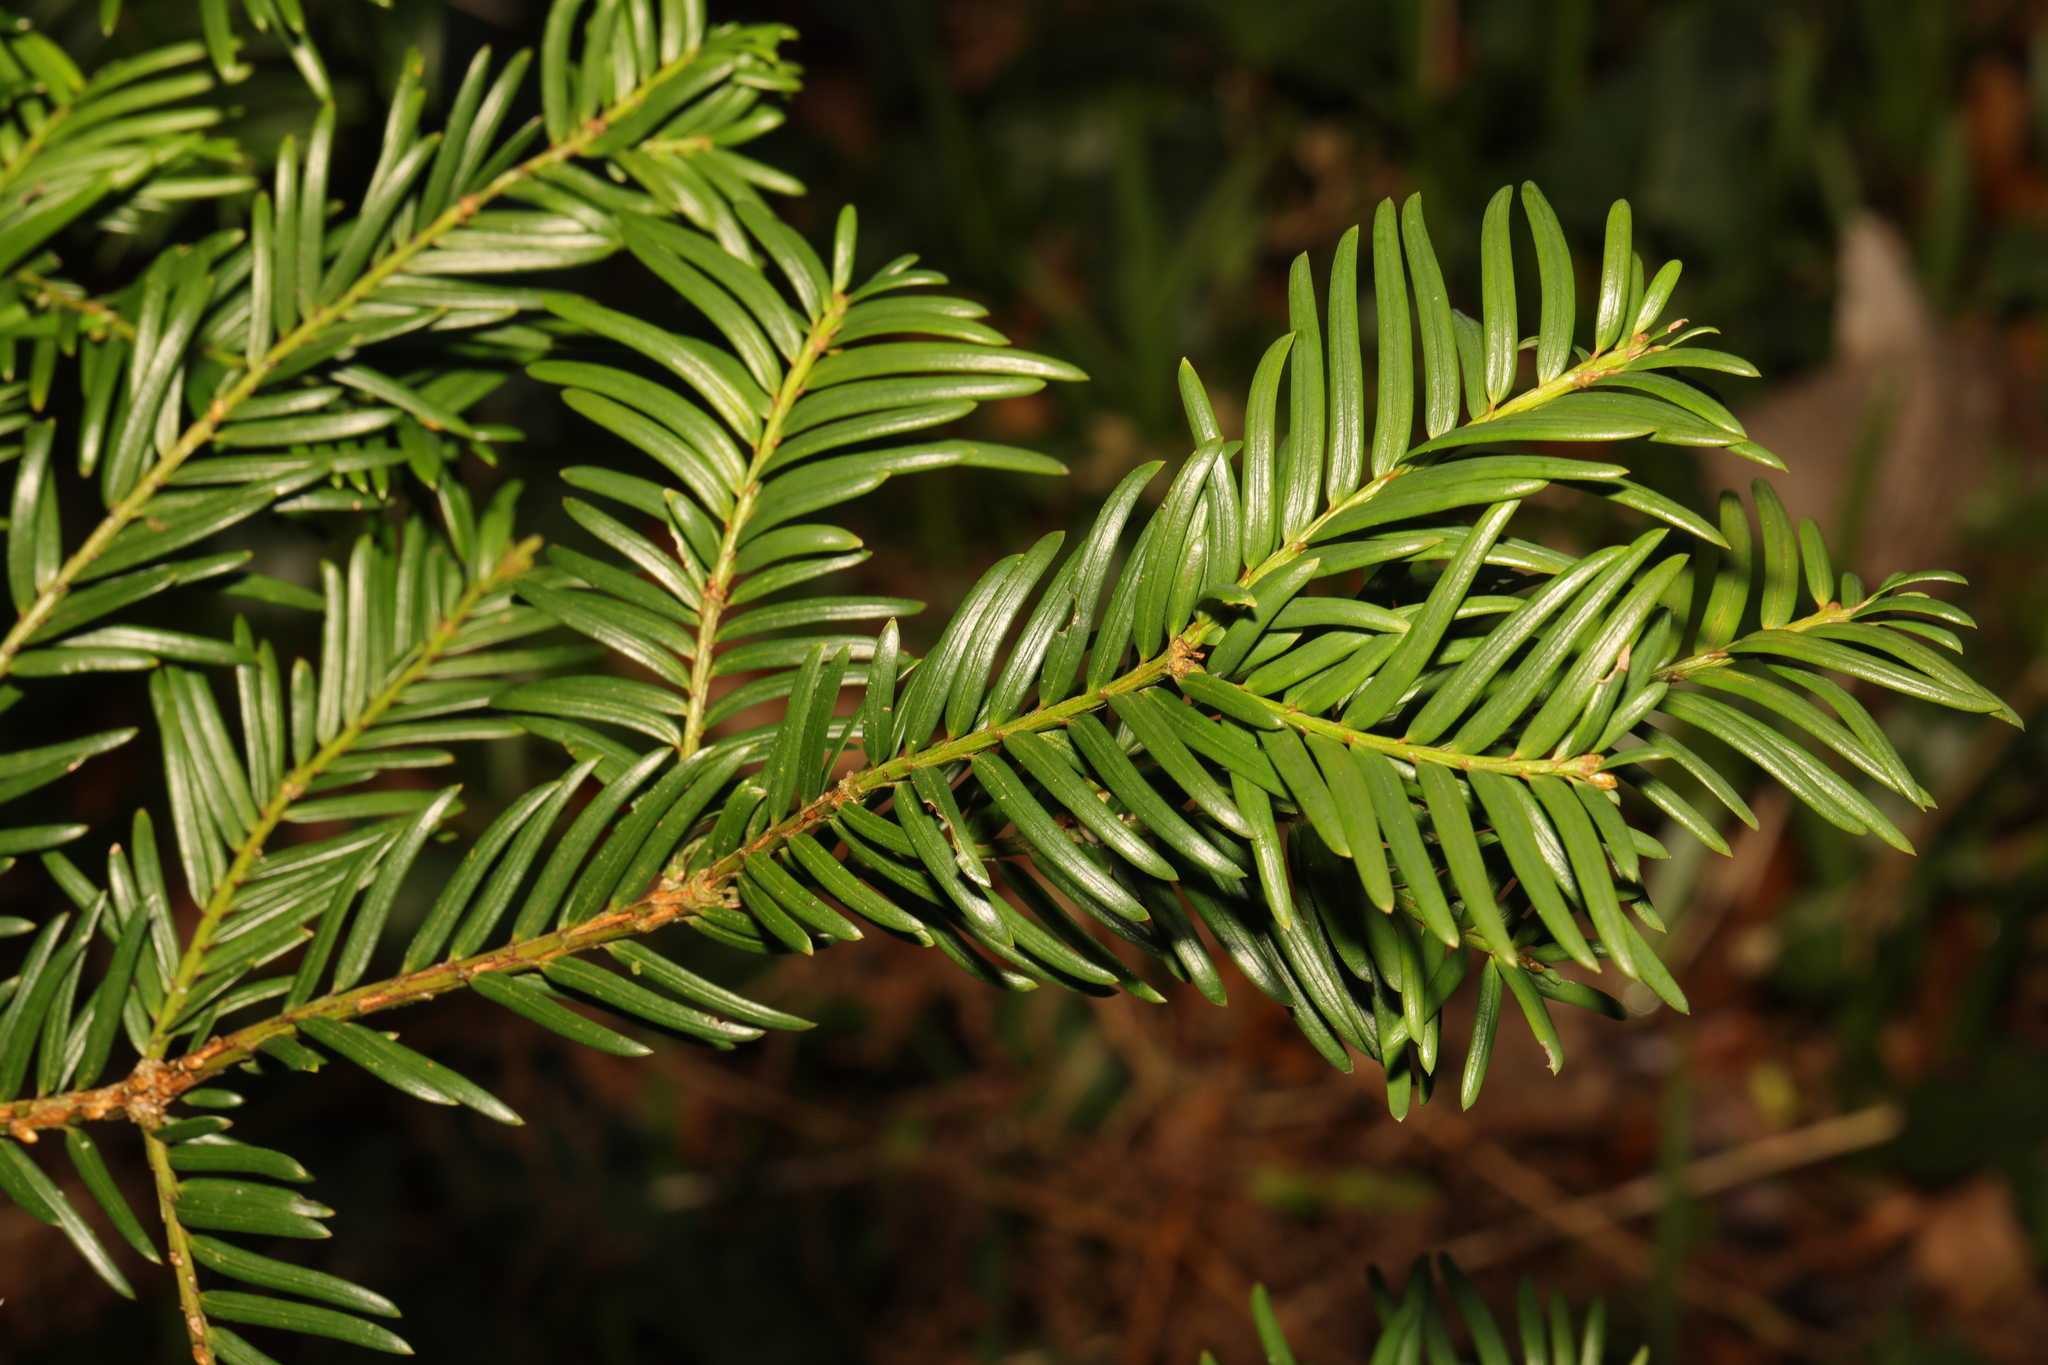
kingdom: Plantae
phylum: Tracheophyta
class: Pinopsida
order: Pinales
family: Taxaceae
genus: Taxus
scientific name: Taxus baccata
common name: Yew
